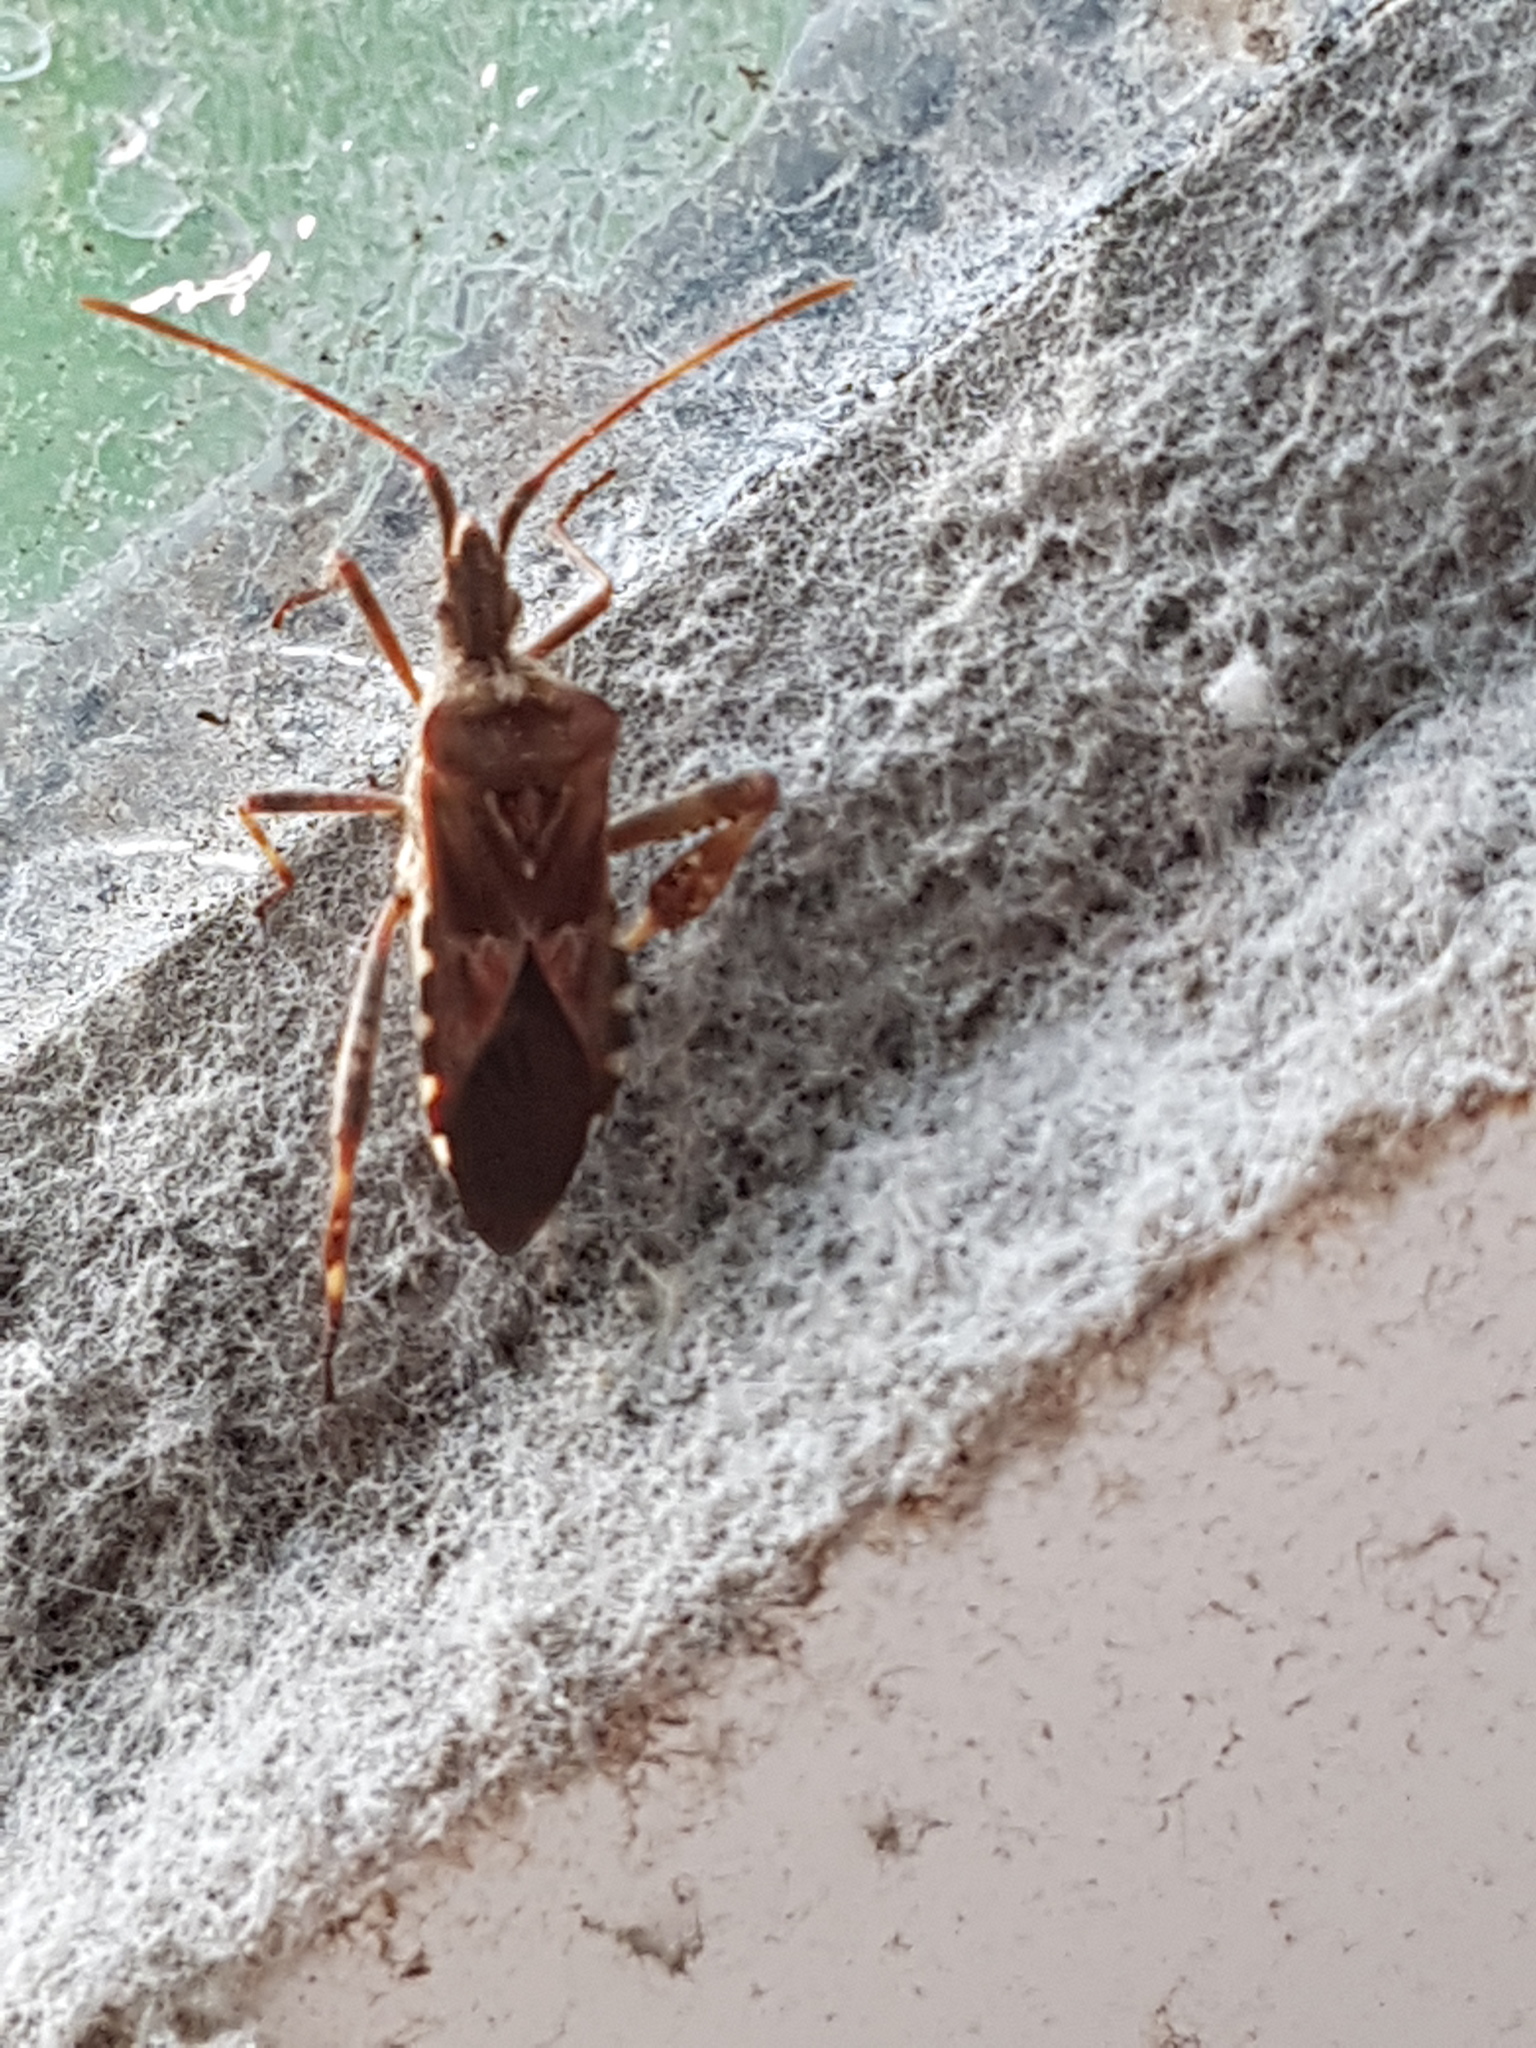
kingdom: Animalia
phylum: Arthropoda
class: Insecta
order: Hemiptera
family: Coreidae
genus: Leptoglossus
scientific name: Leptoglossus occidentalis
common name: Western conifer-seed bug
